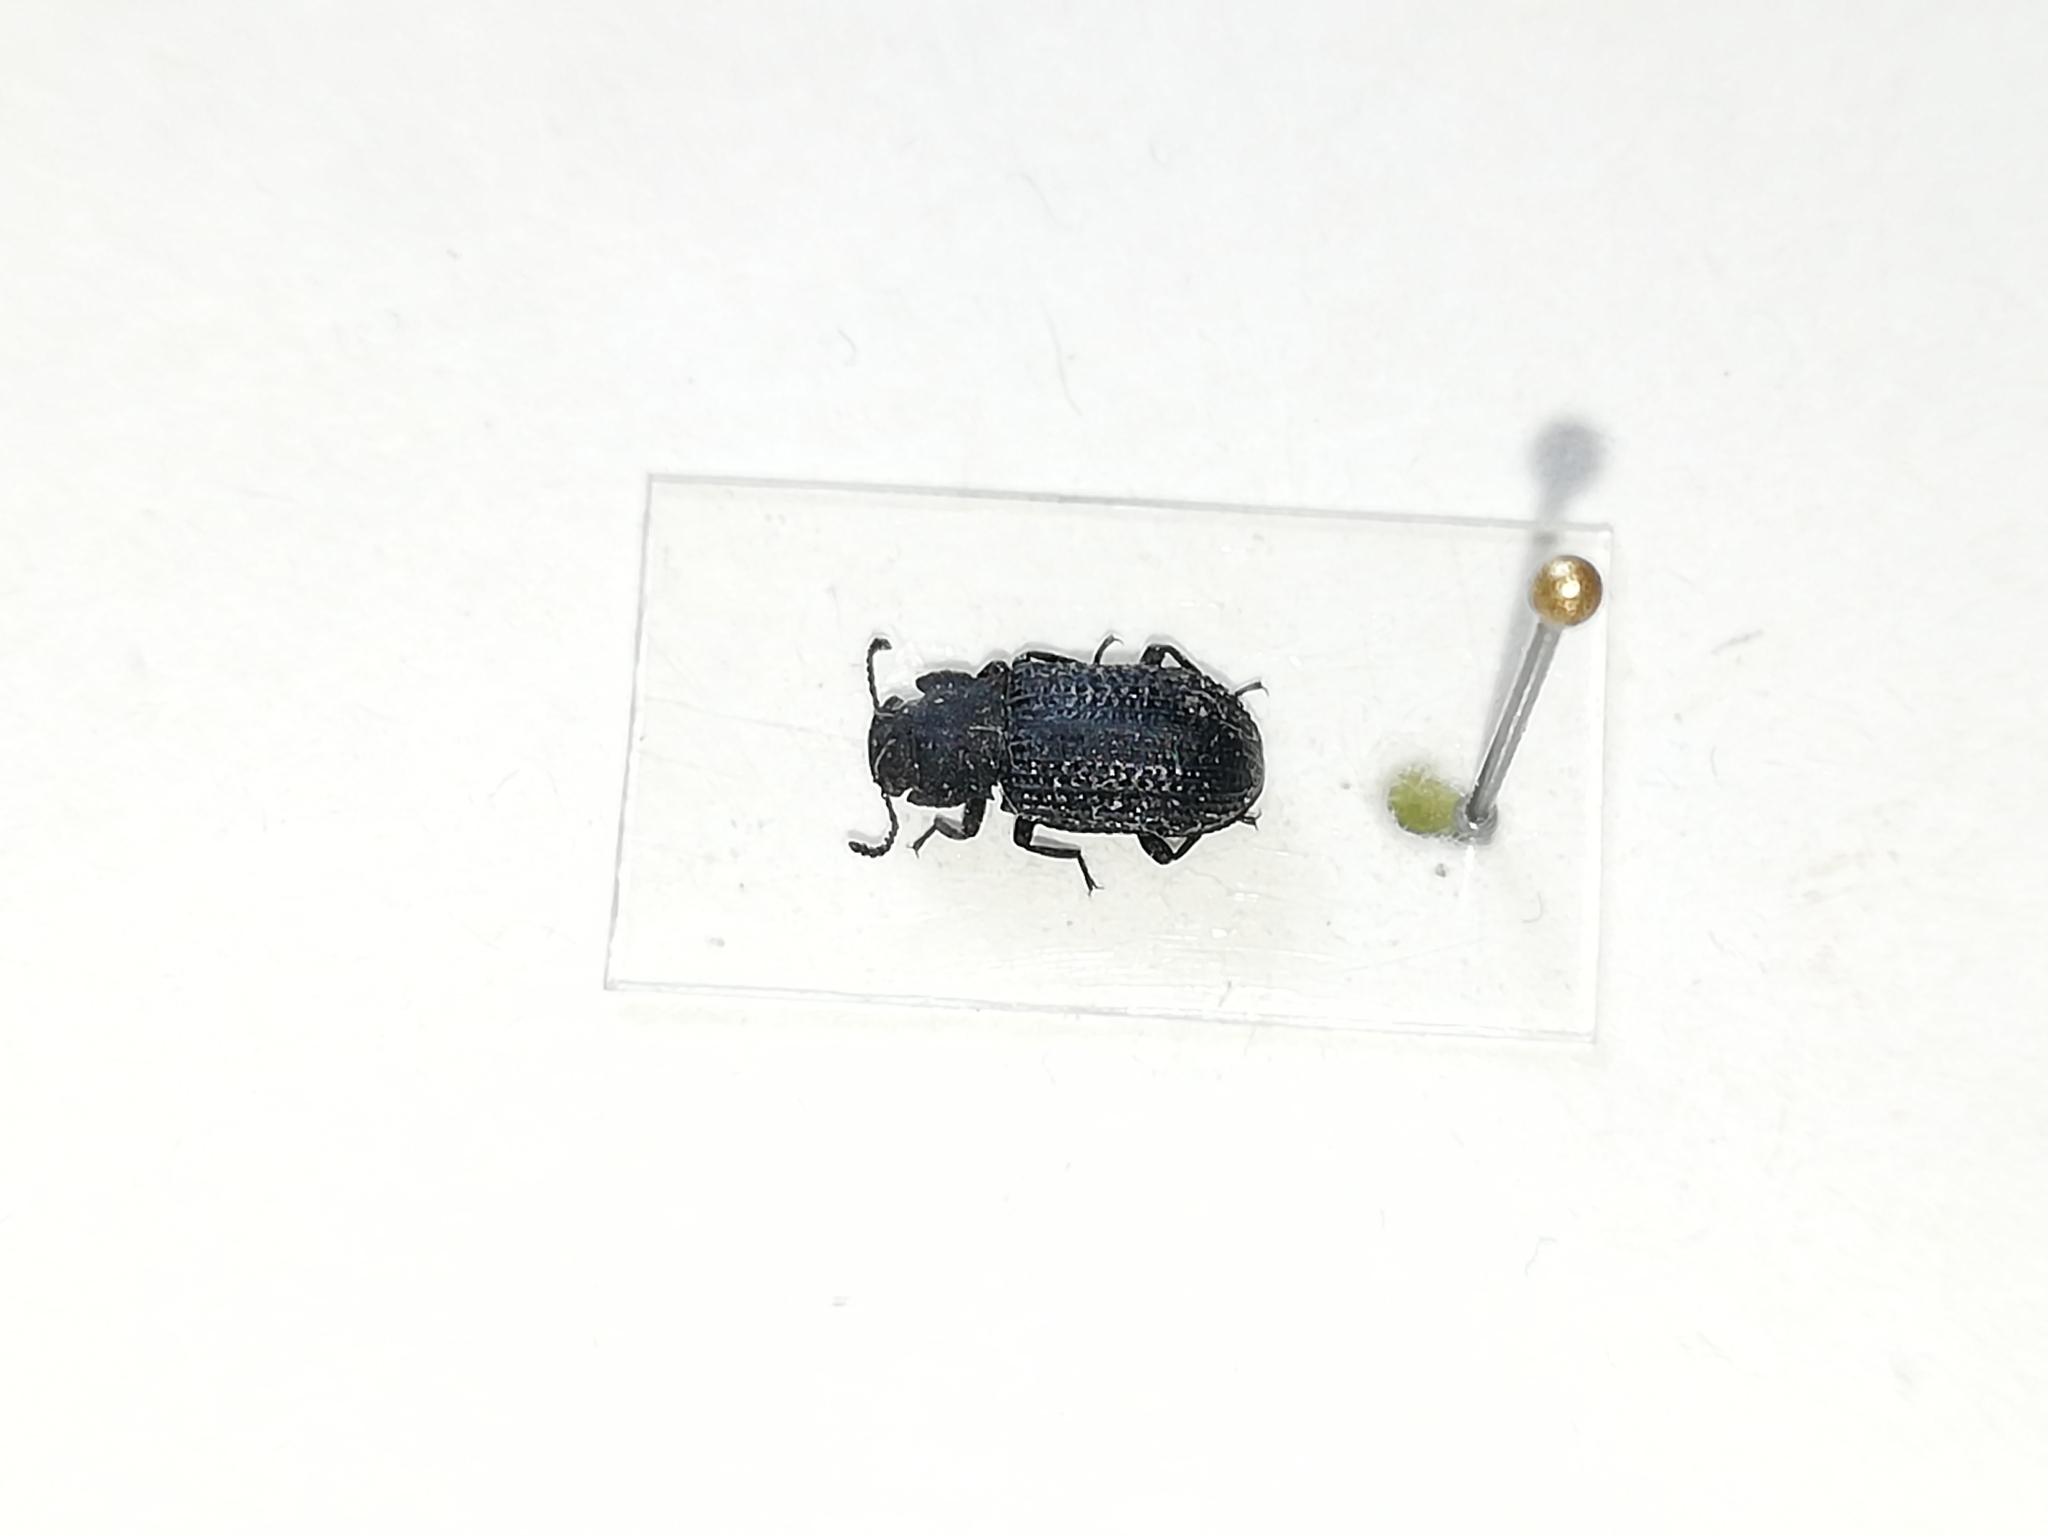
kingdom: Animalia
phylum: Arthropoda
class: Insecta
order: Coleoptera
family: Tenebrionidae
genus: Bolitophagus
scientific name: Bolitophagus reticulatus
